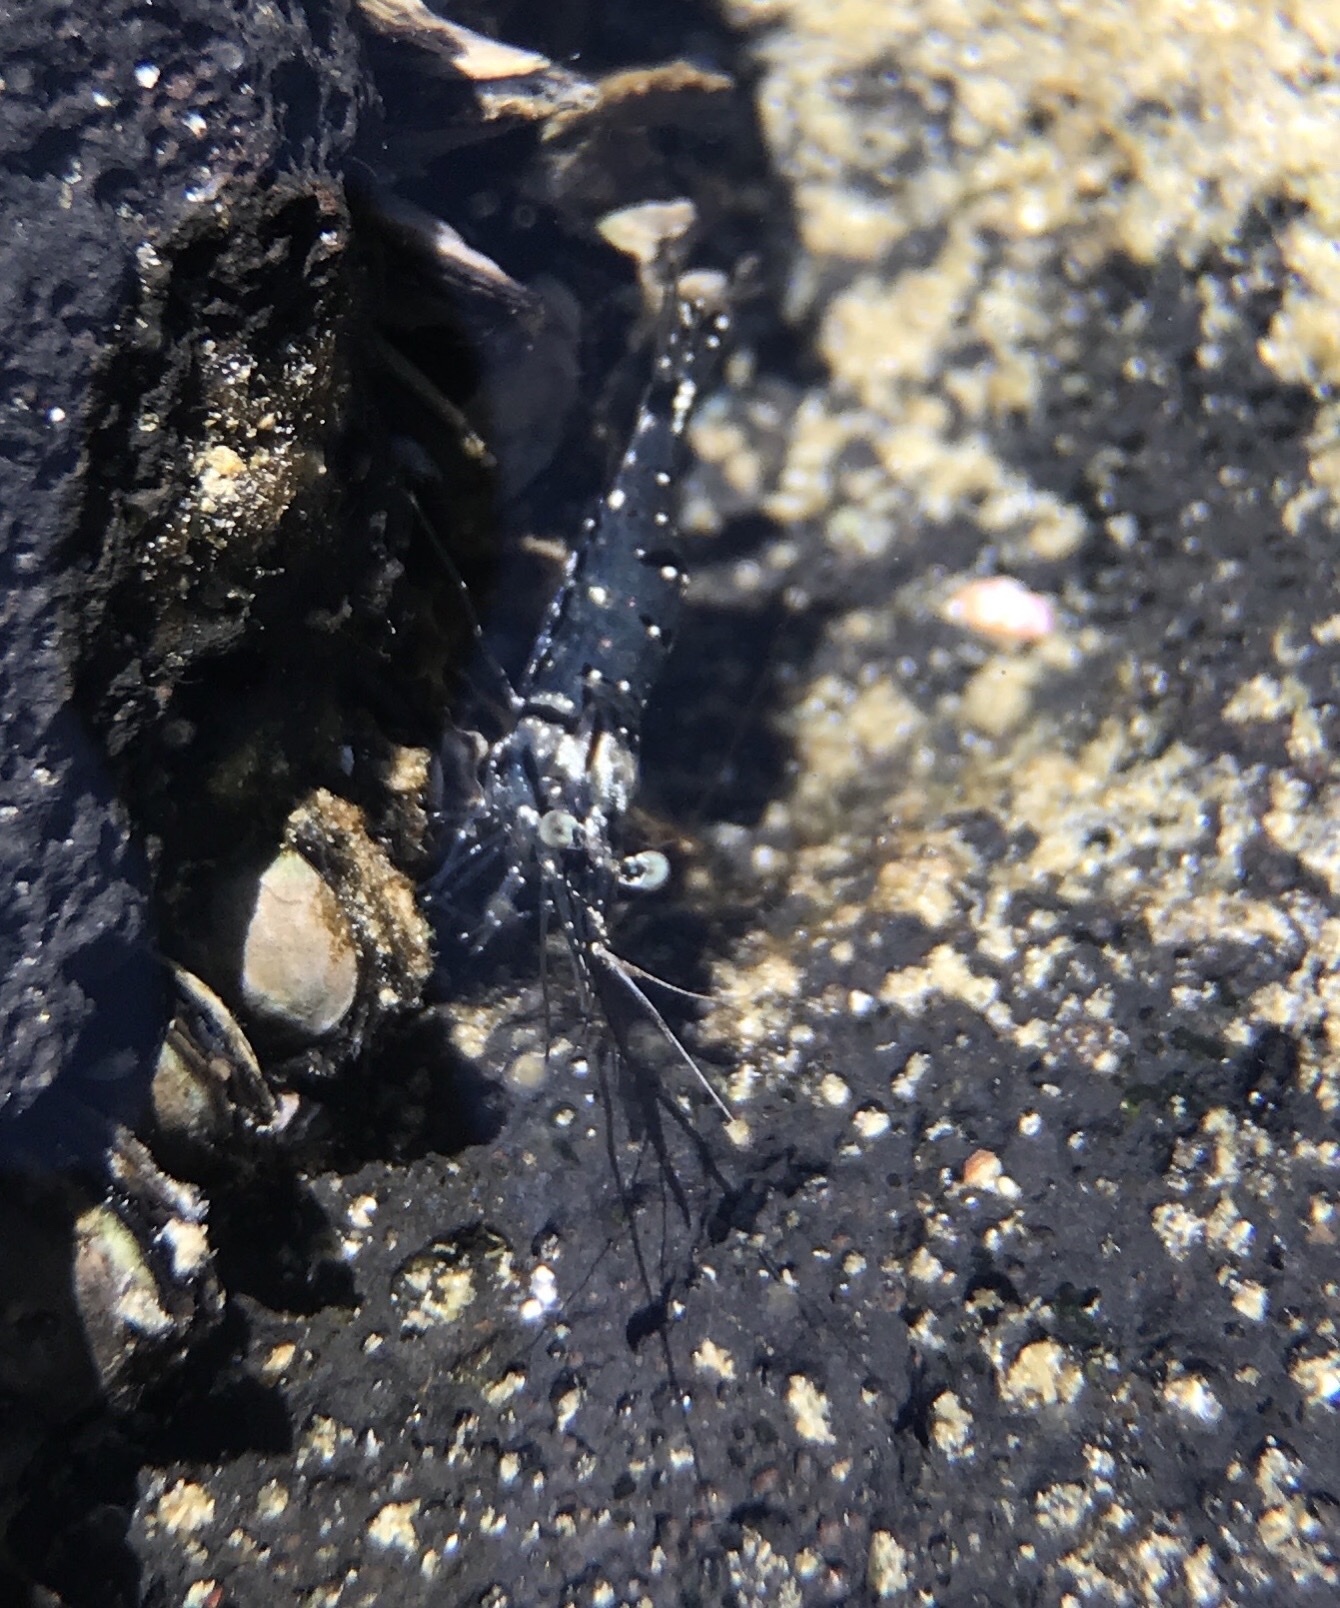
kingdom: Animalia
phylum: Arthropoda
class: Malacostraca
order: Decapoda
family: Palaemonidae
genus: Palaemon
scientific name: Palaemon debilis
